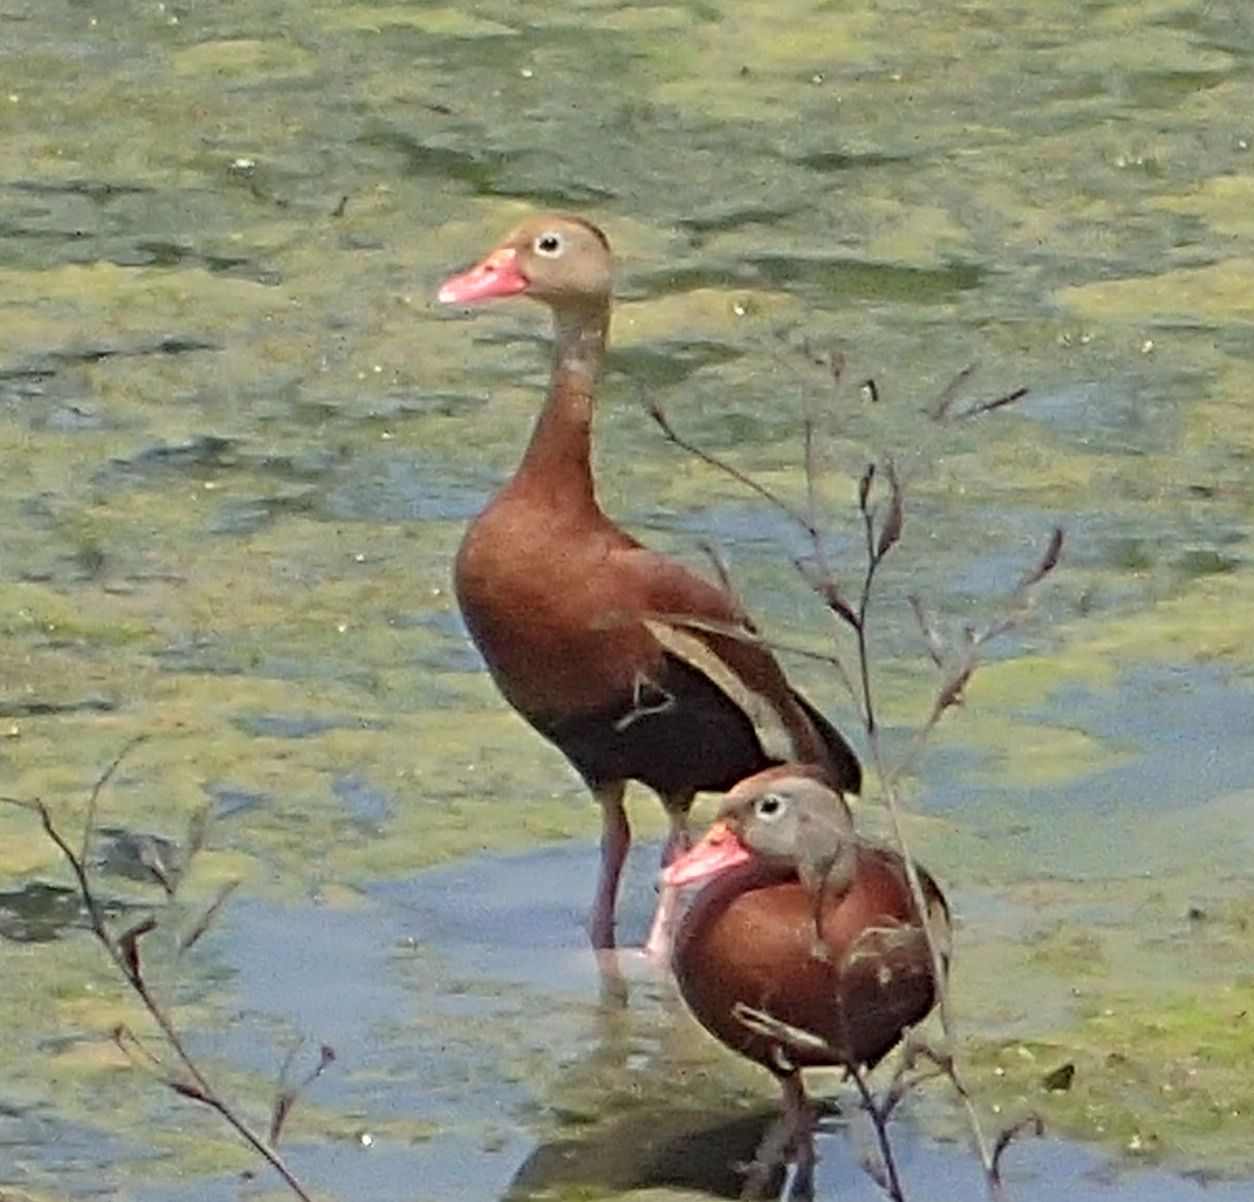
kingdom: Animalia
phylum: Chordata
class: Aves
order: Anseriformes
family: Anatidae
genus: Dendrocygna
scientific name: Dendrocygna autumnalis
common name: Black-bellied whistling duck
